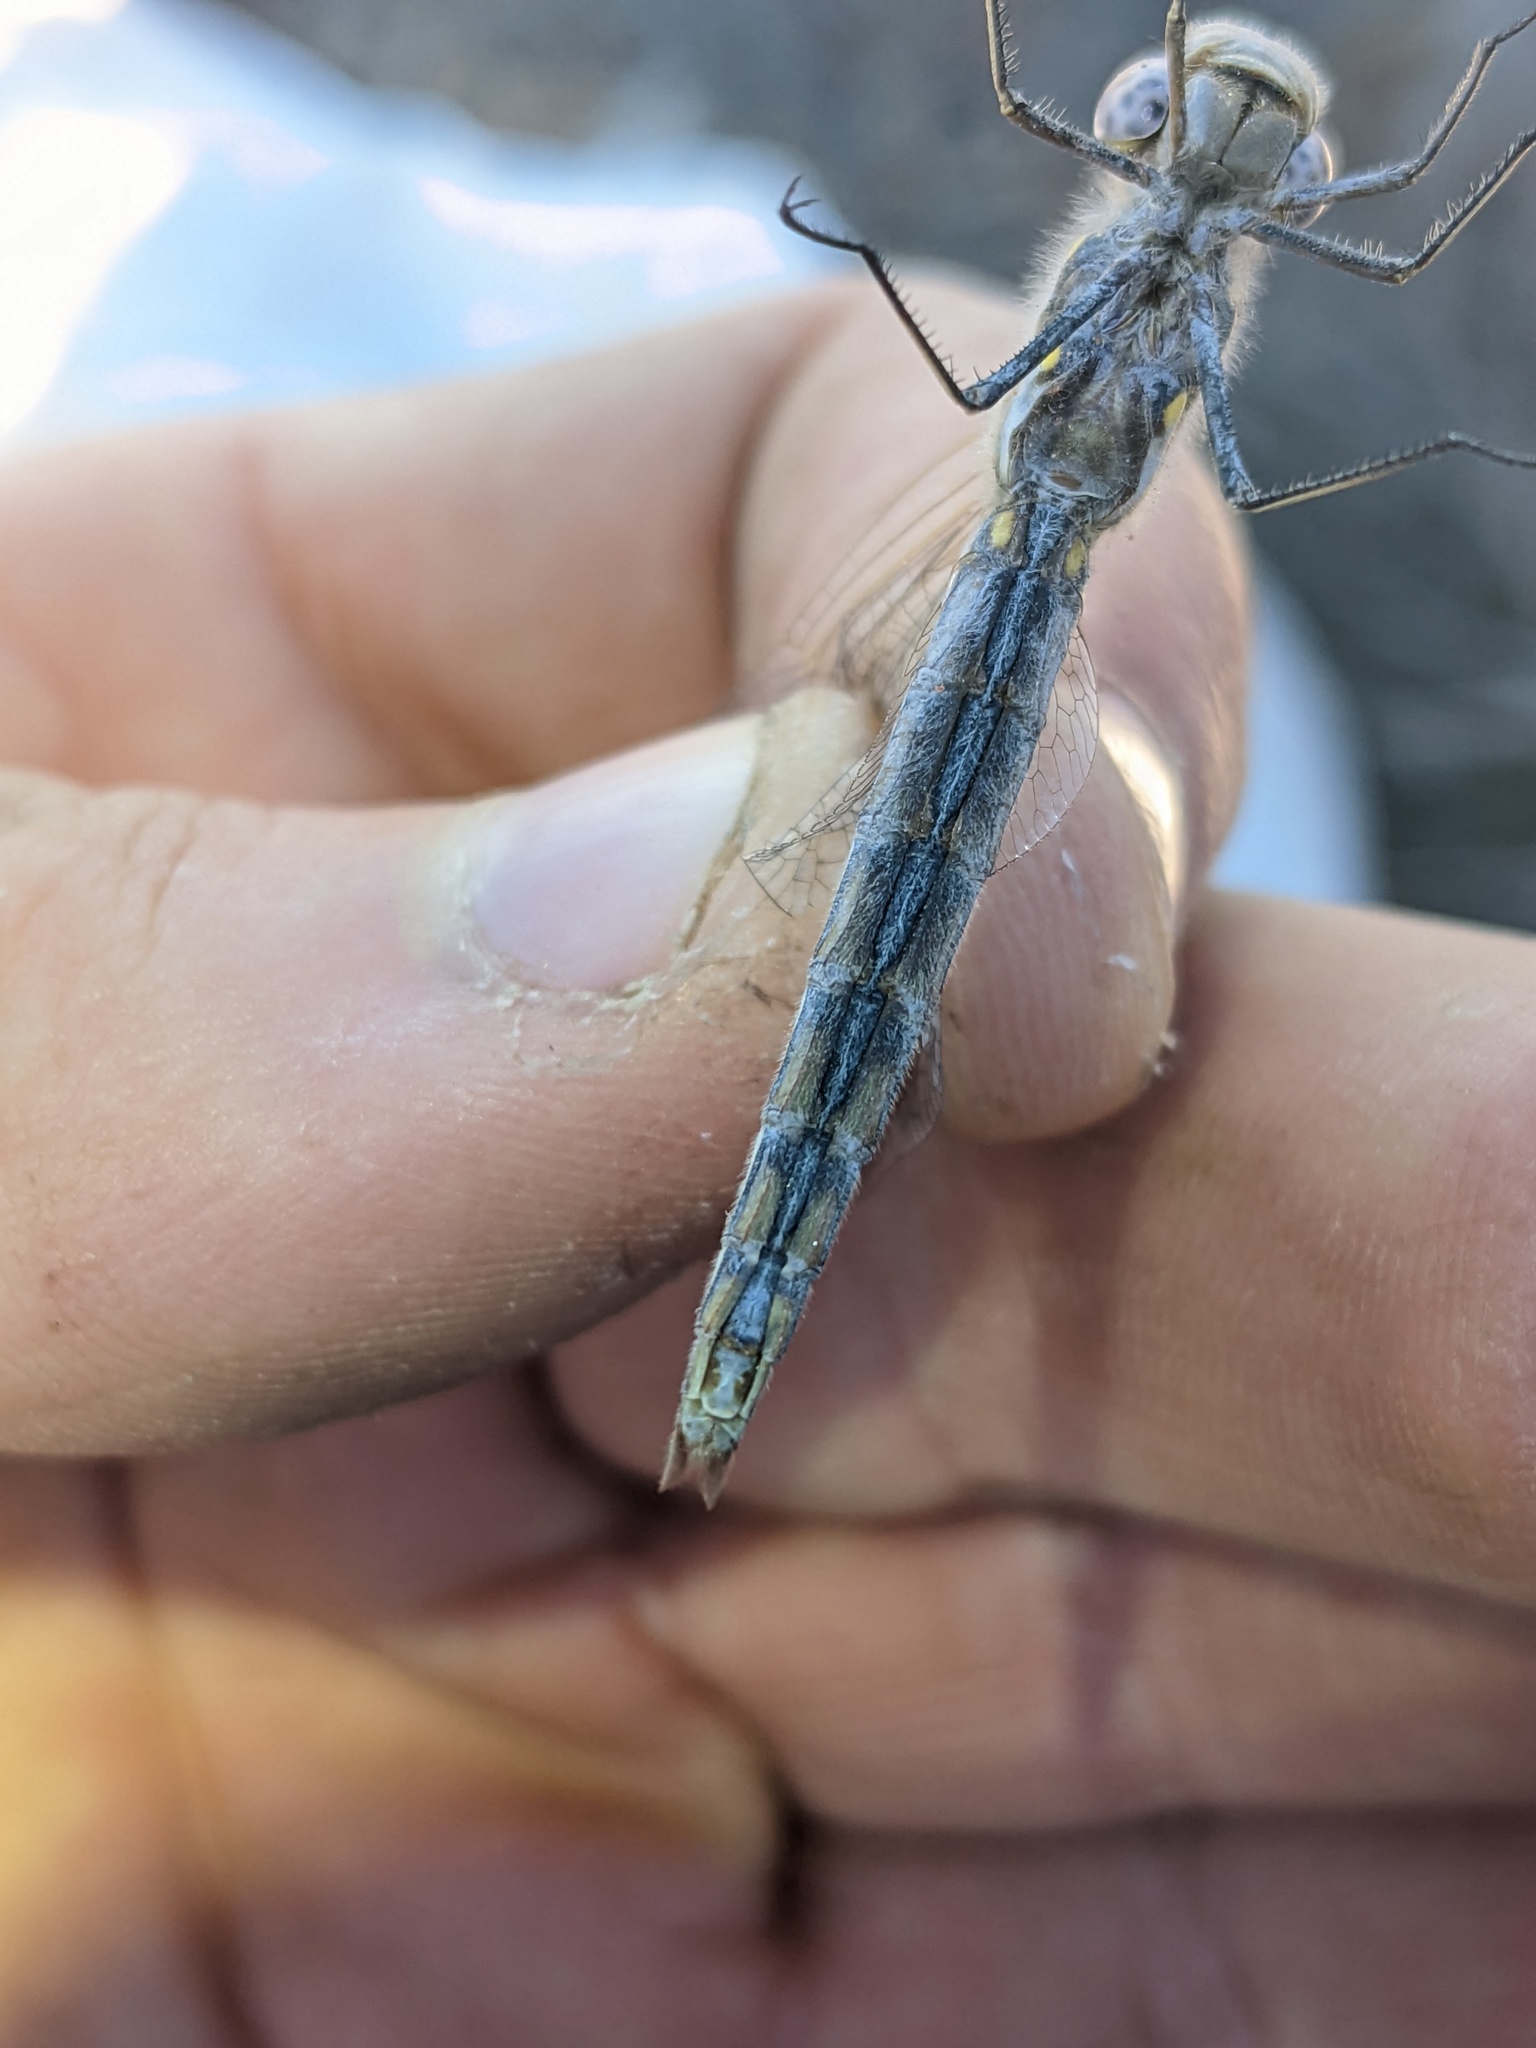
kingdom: Animalia
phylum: Arthropoda
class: Insecta
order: Odonata
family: Libellulidae
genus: Sympetrum
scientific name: Sympetrum corruptum
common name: Variegated meadowhawk
